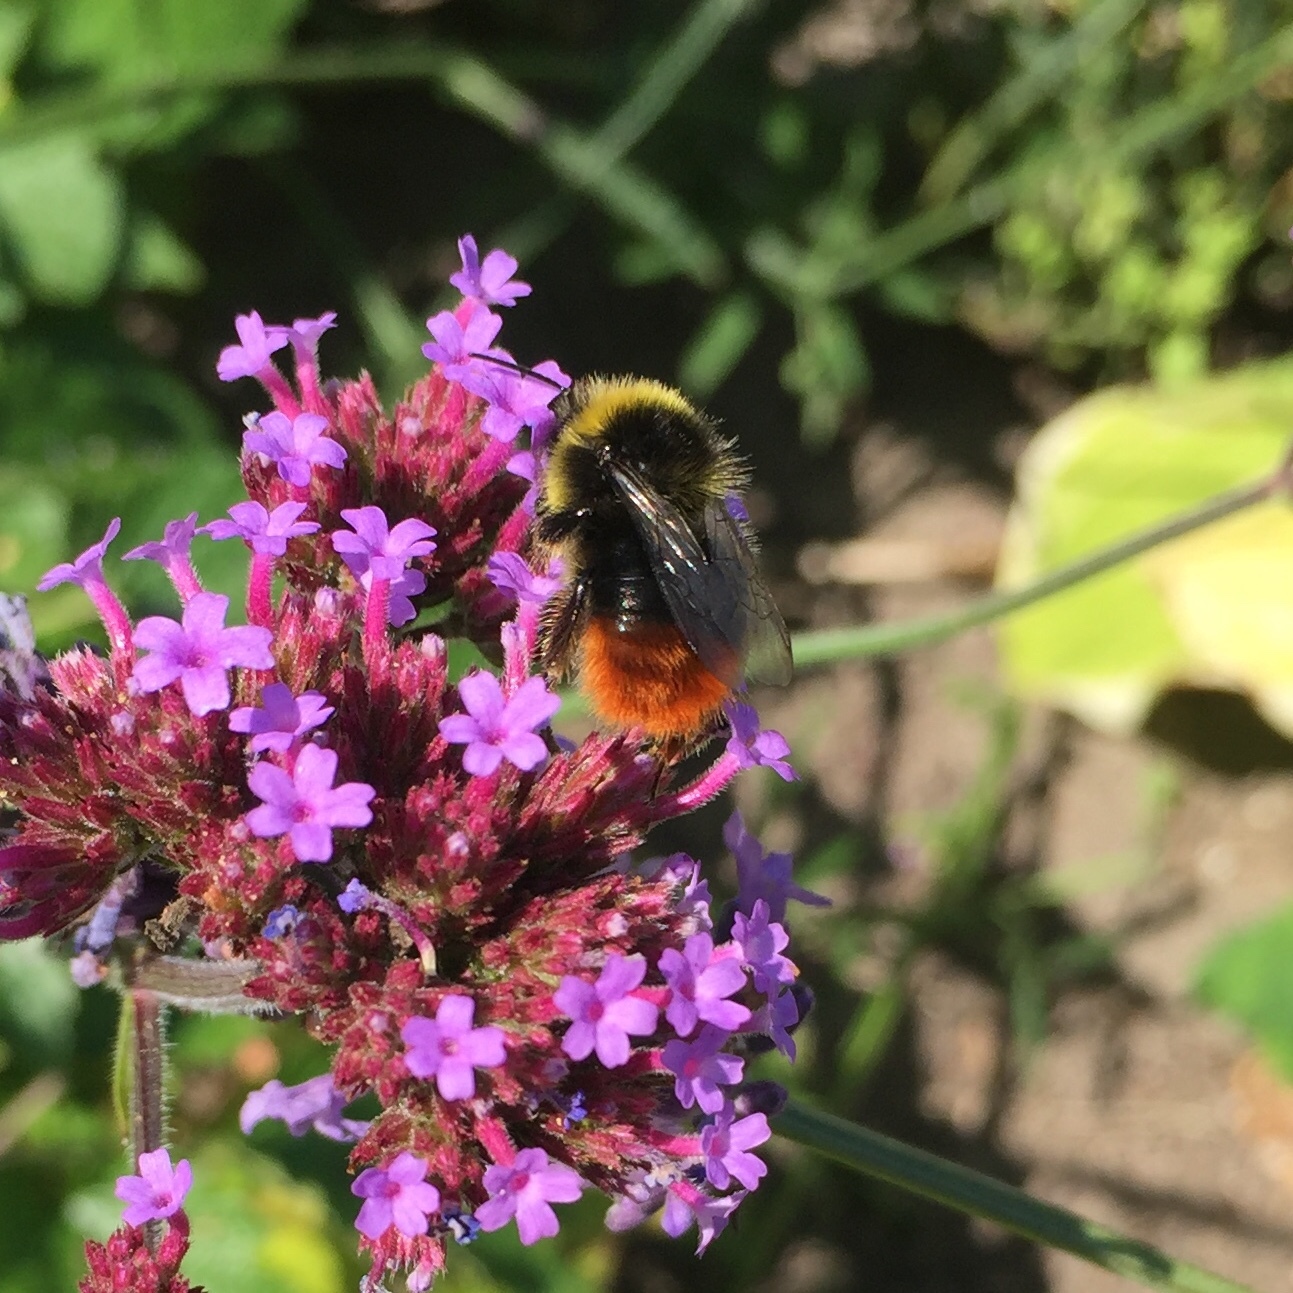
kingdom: Animalia
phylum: Arthropoda
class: Insecta
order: Hymenoptera
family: Apidae
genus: Bombus
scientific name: Bombus lapidarius
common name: Large red-tailed humble-bee
